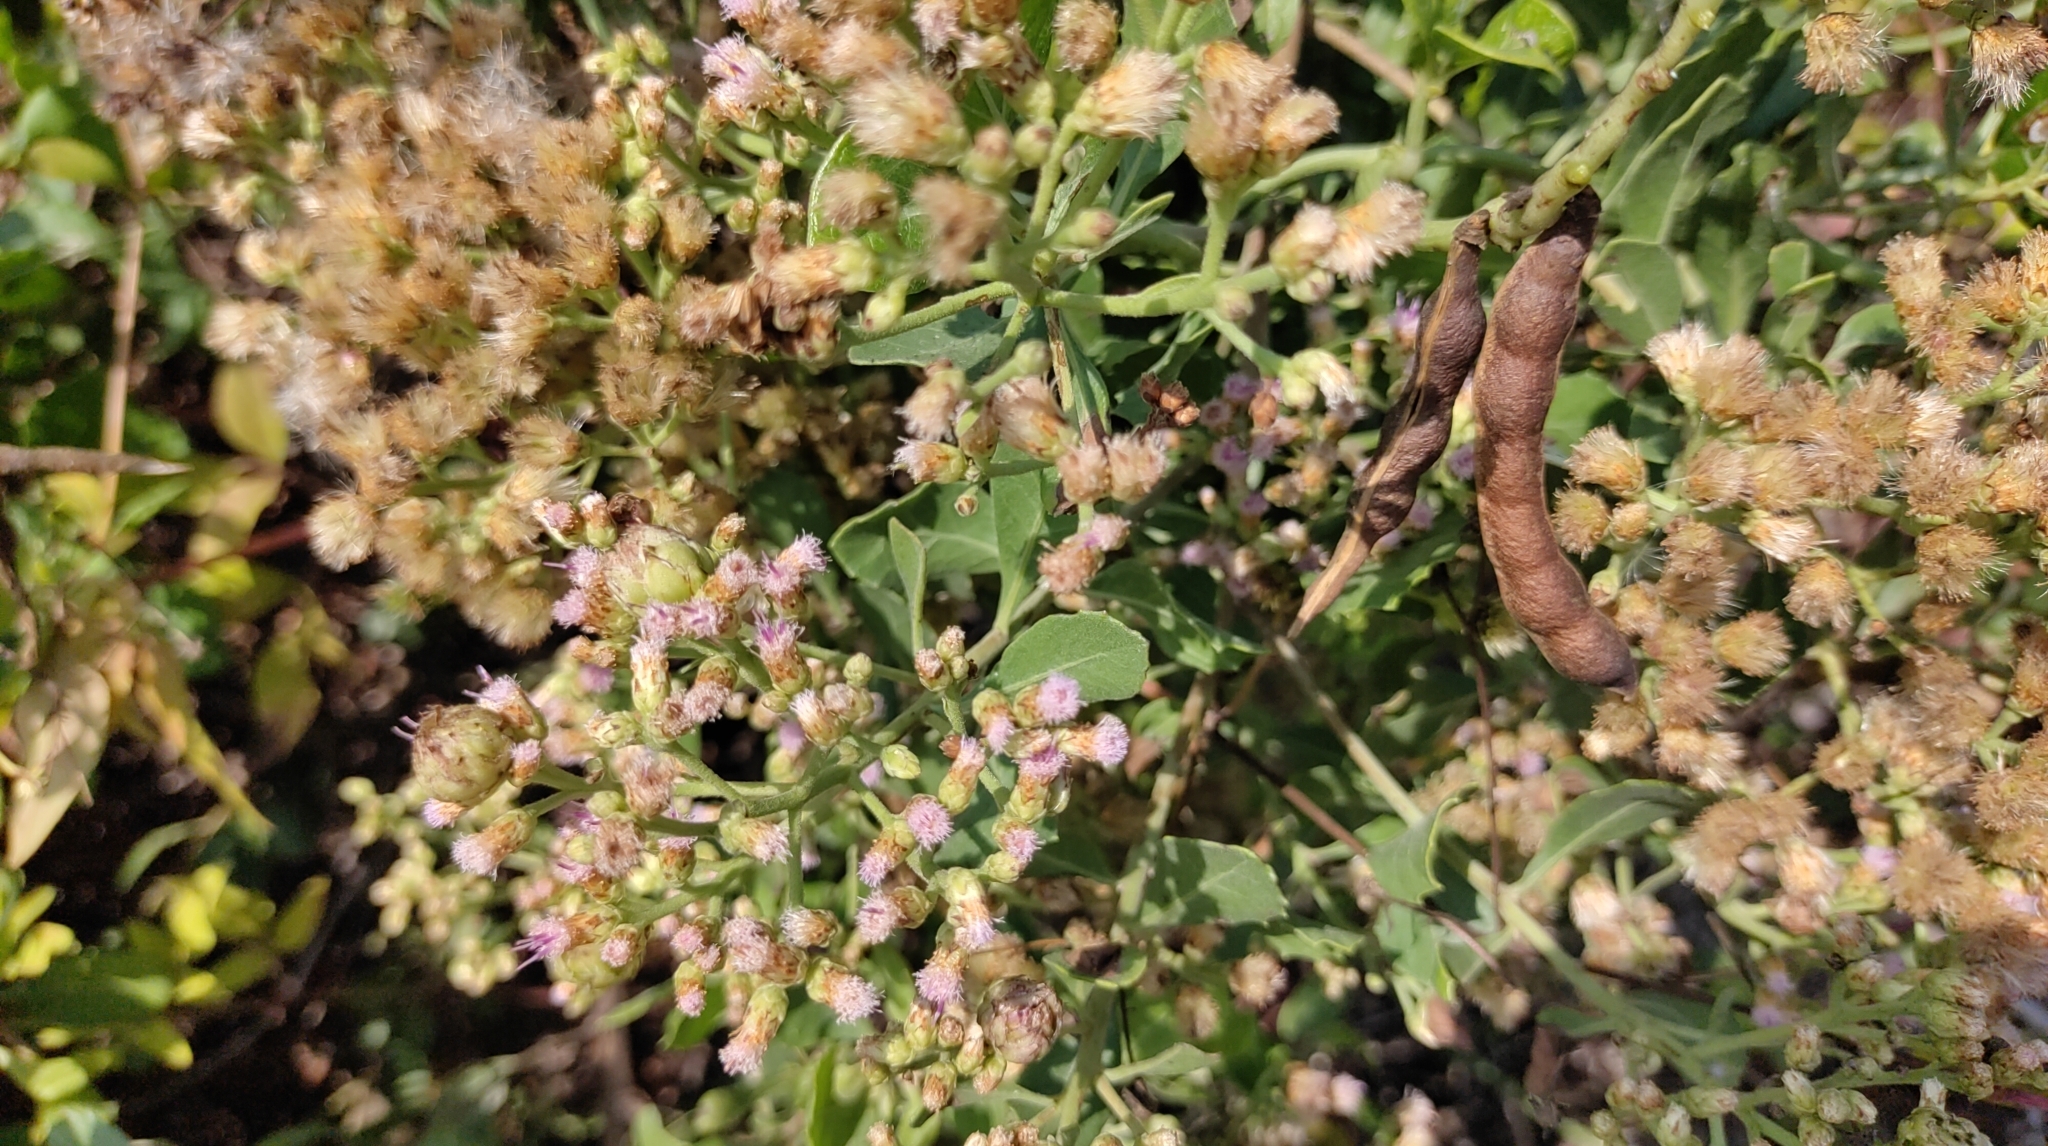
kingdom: Plantae
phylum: Tracheophyta
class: Magnoliopsida
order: Asterales
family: Asteraceae
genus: Pluchea
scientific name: Pluchea indica
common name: Indian fleabane
